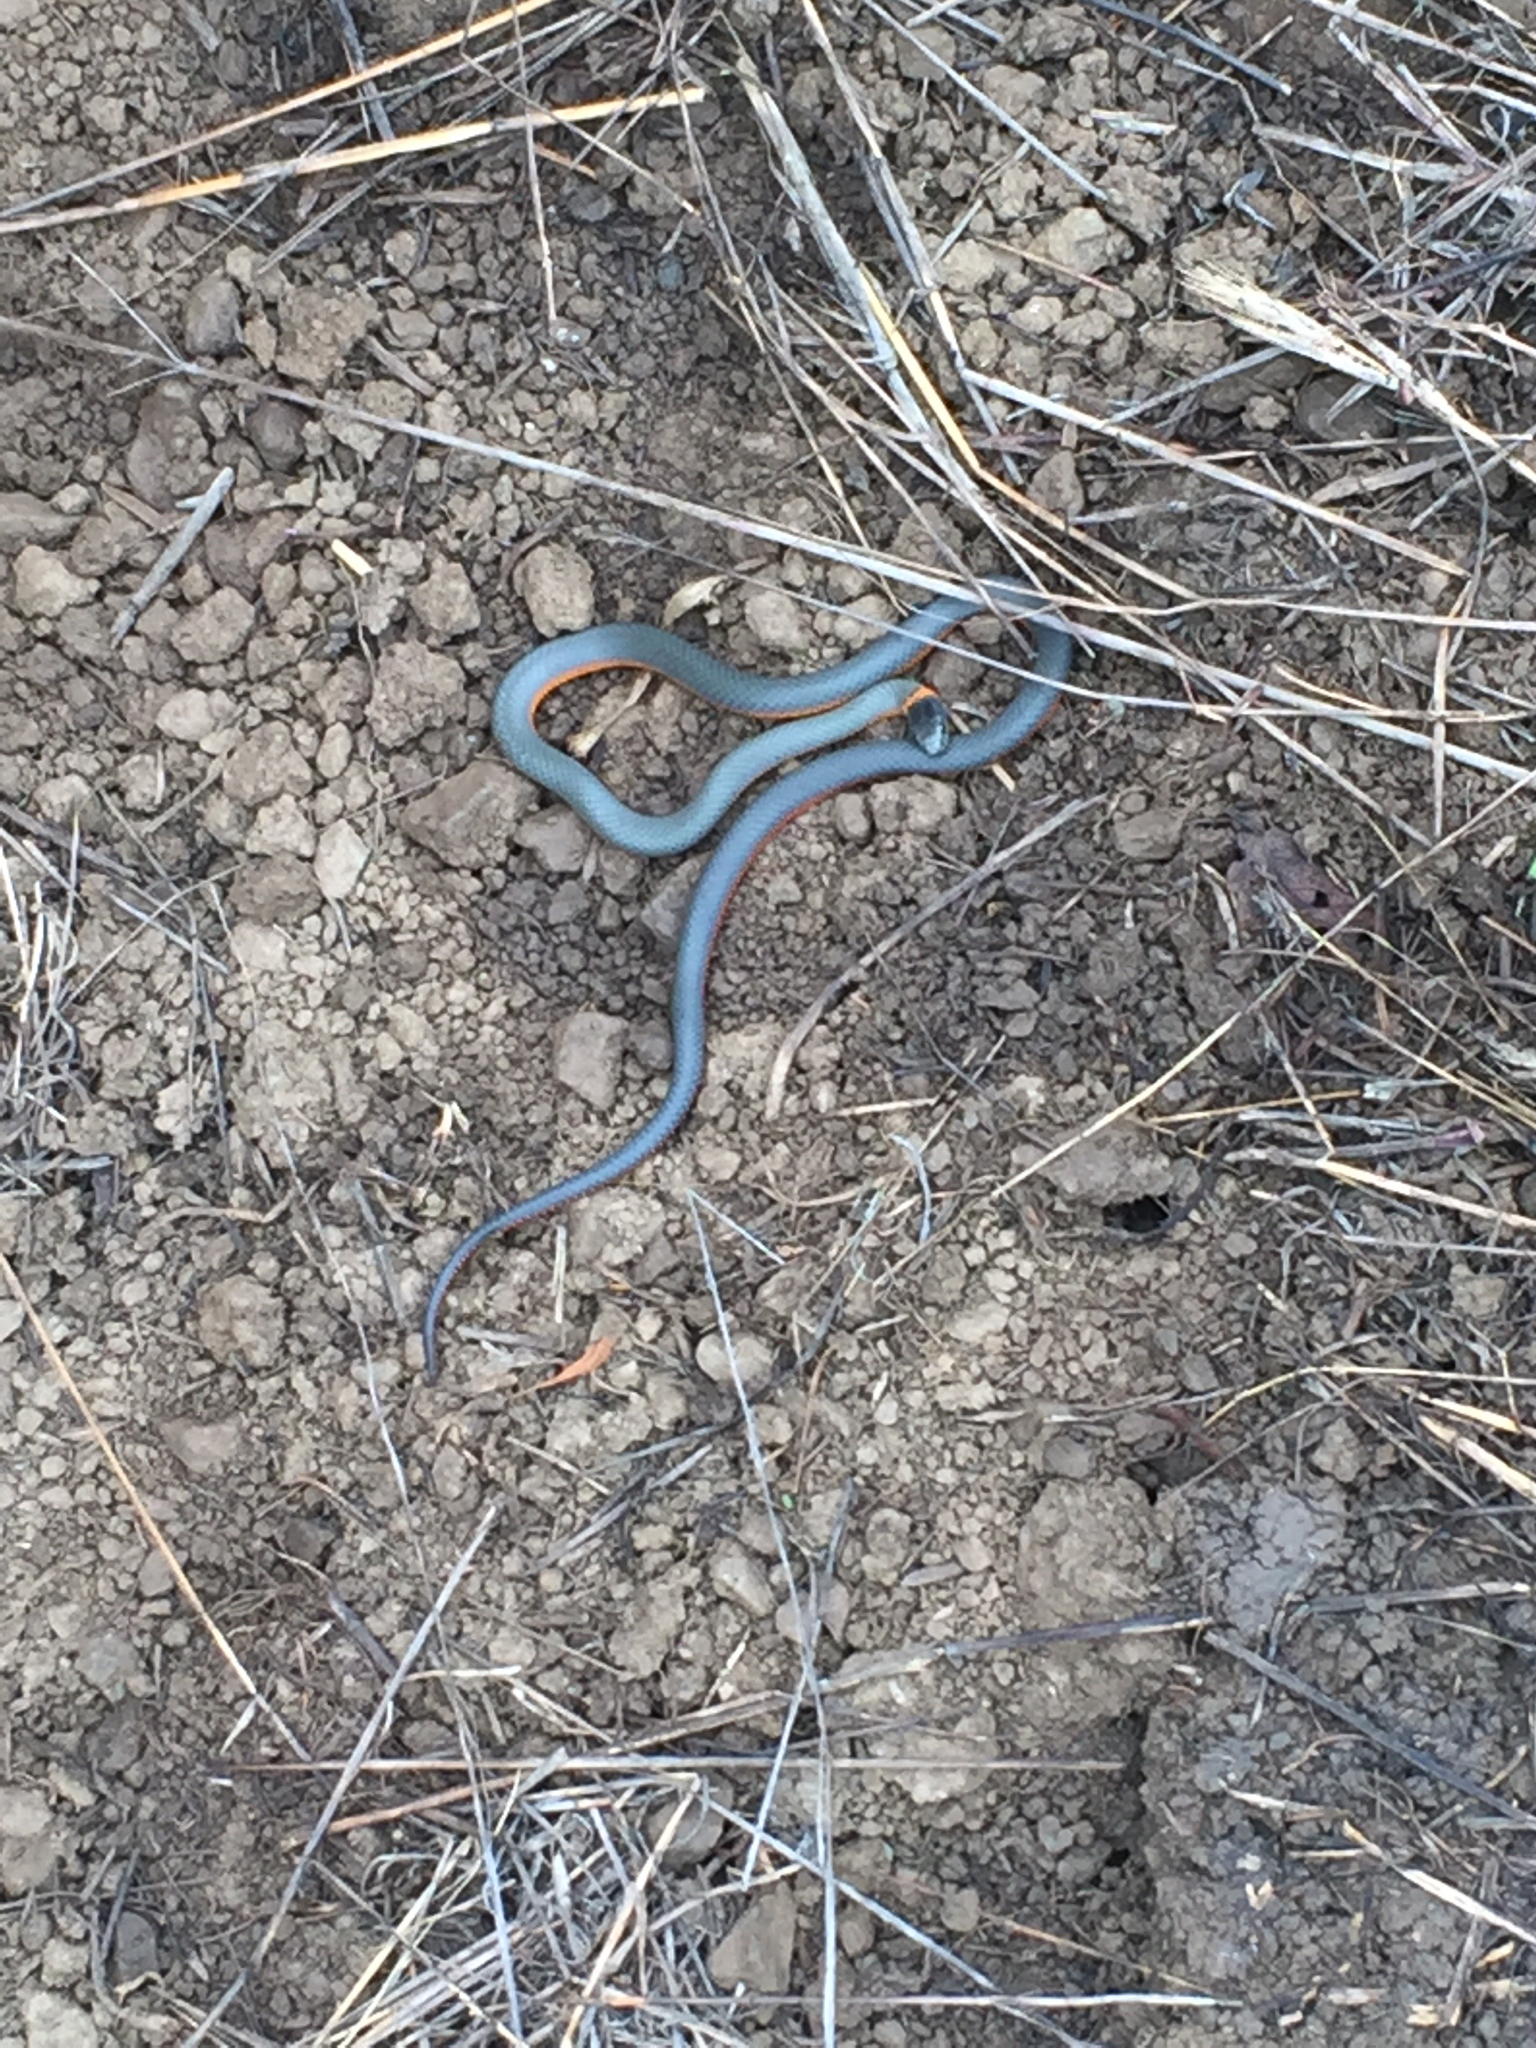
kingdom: Animalia
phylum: Chordata
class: Squamata
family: Colubridae
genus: Diadophis
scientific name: Diadophis punctatus
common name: Ringneck snake
